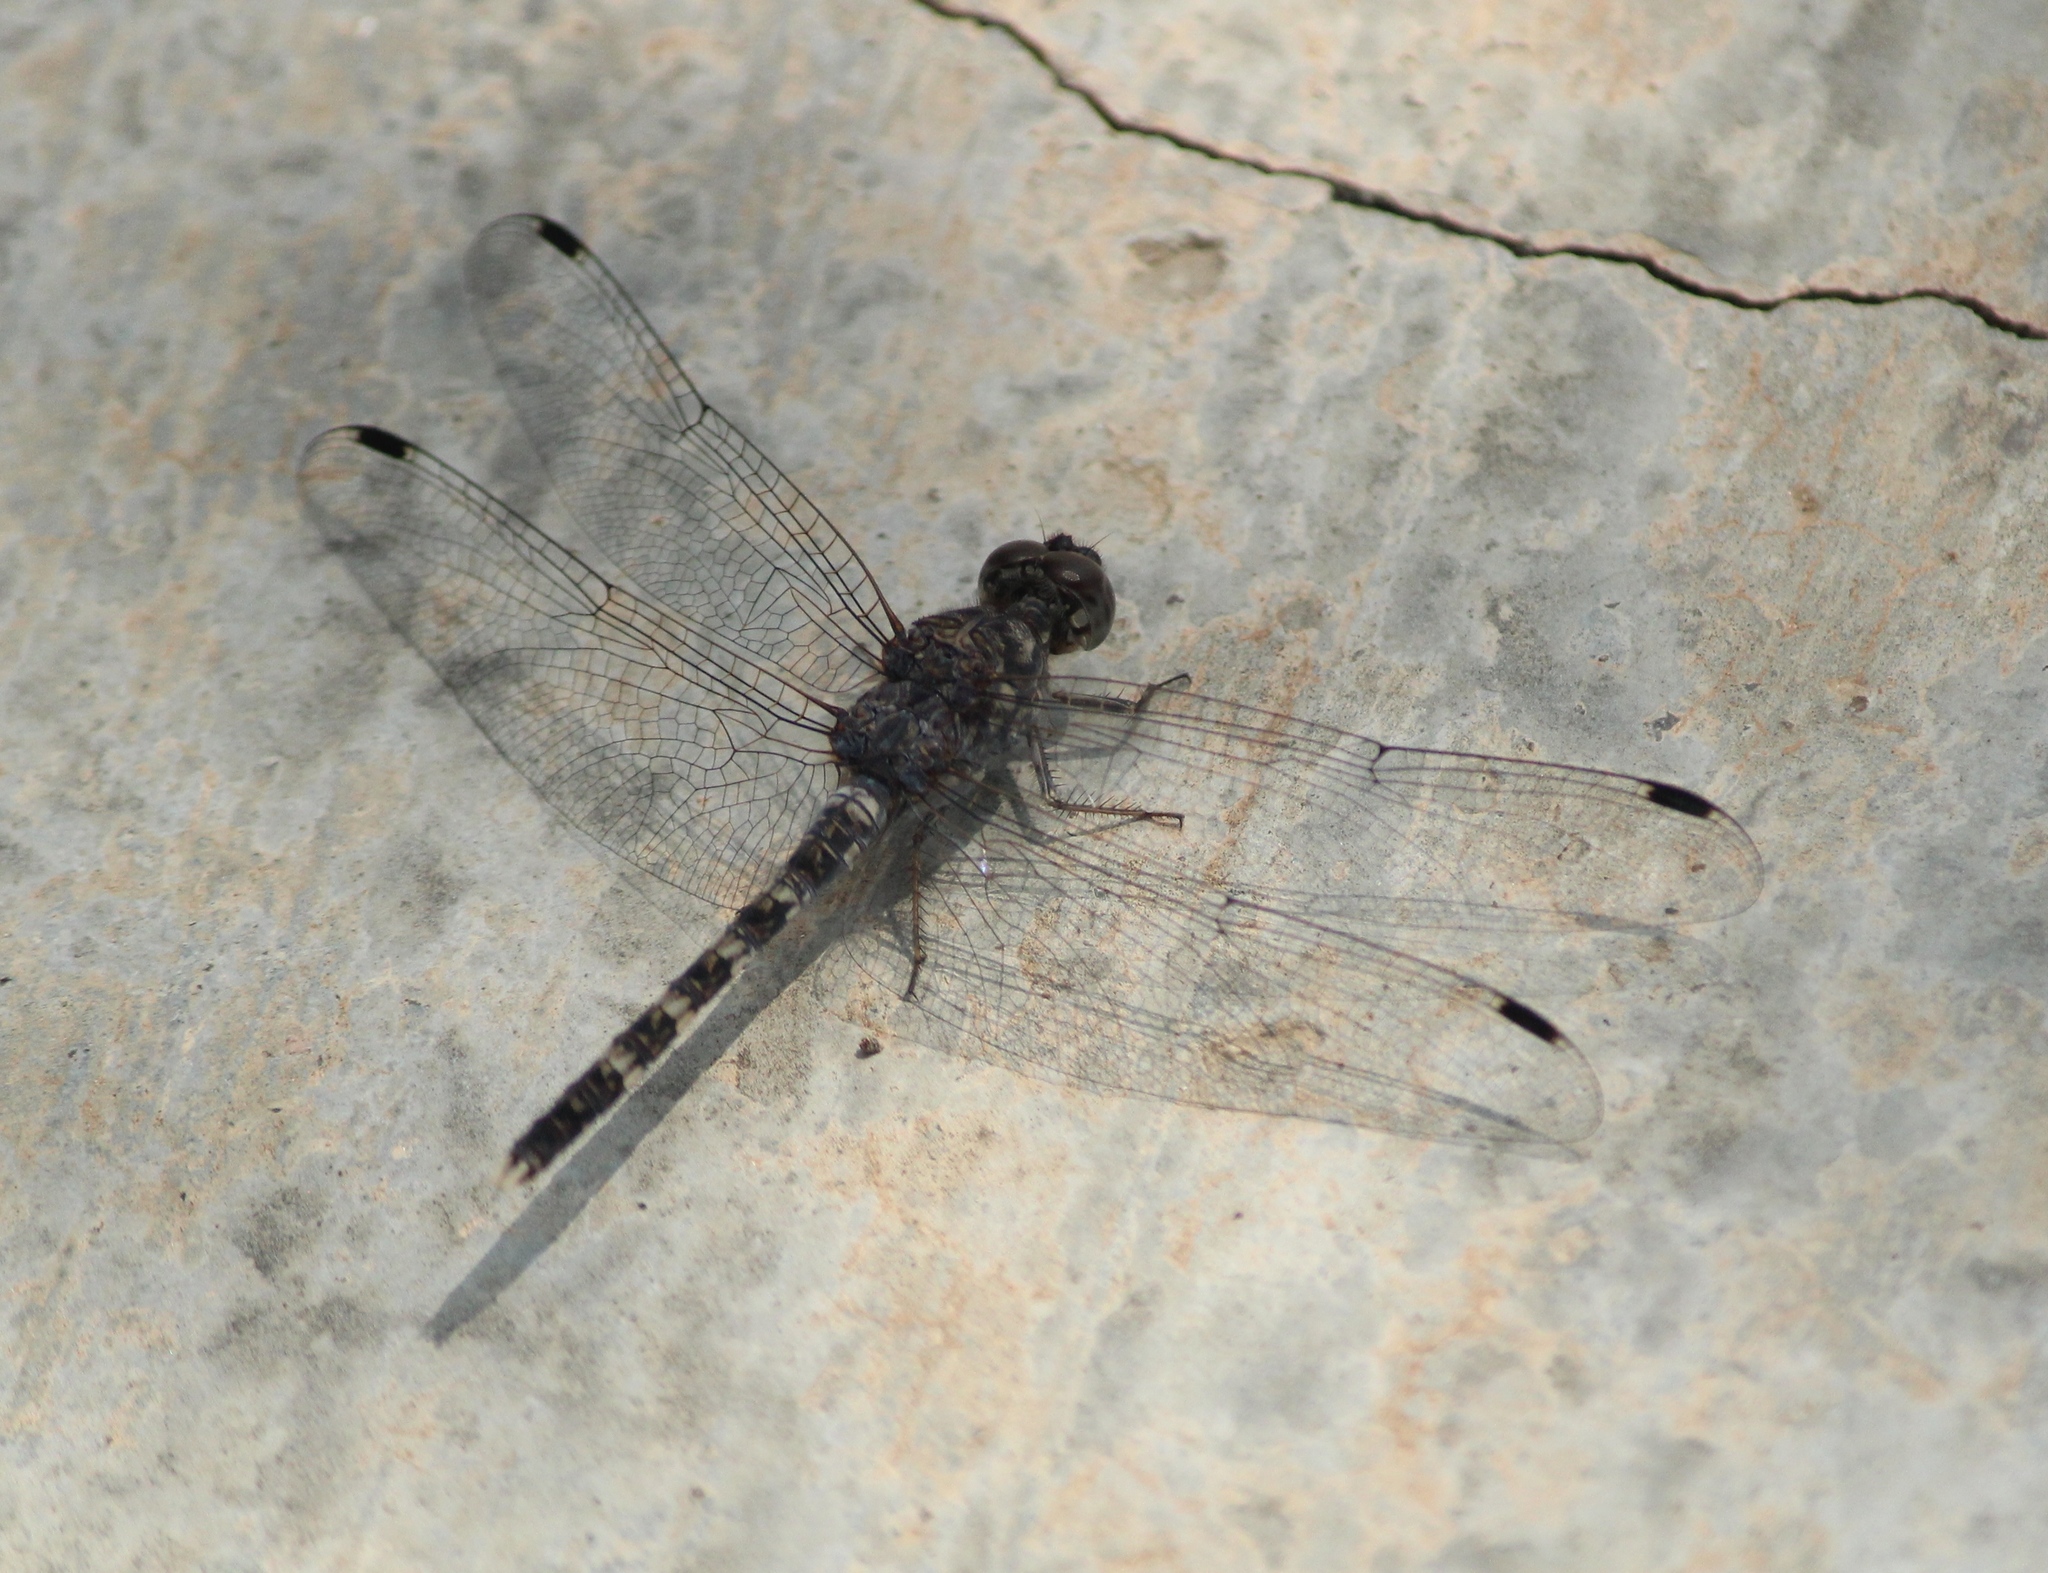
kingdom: Animalia
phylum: Arthropoda
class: Insecta
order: Odonata
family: Libellulidae
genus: Bradinopyga
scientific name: Bradinopyga geminata
